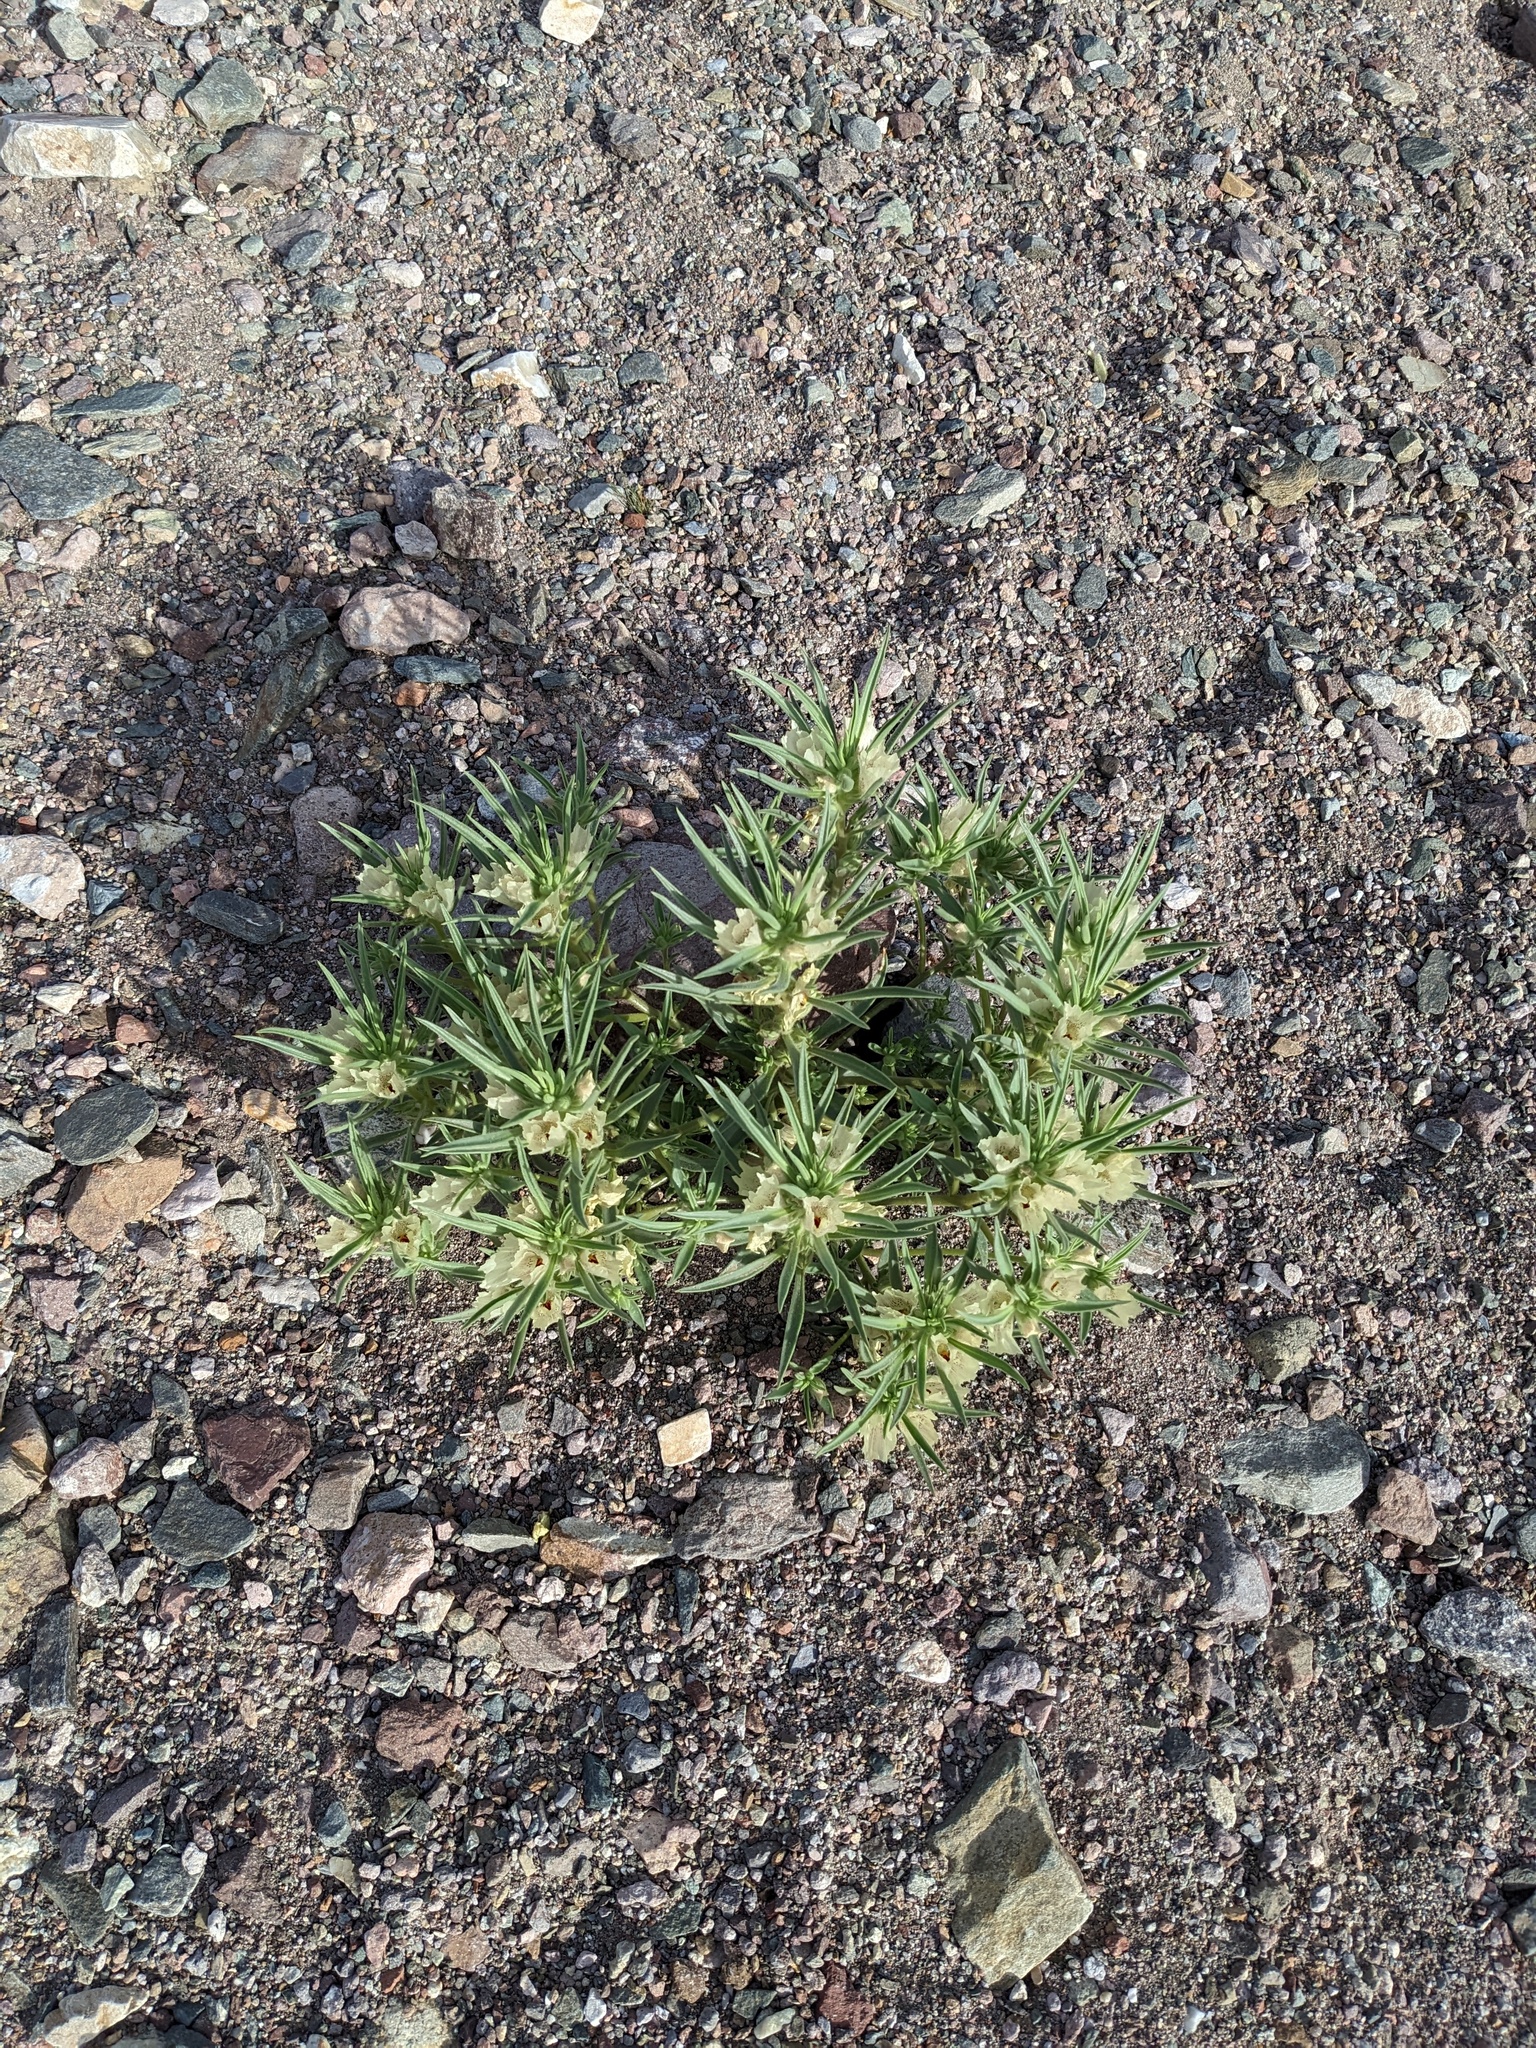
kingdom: Plantae
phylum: Tracheophyta
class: Magnoliopsida
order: Lamiales
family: Plantaginaceae
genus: Mohavea
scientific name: Mohavea confertiflora
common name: Ghost flower
